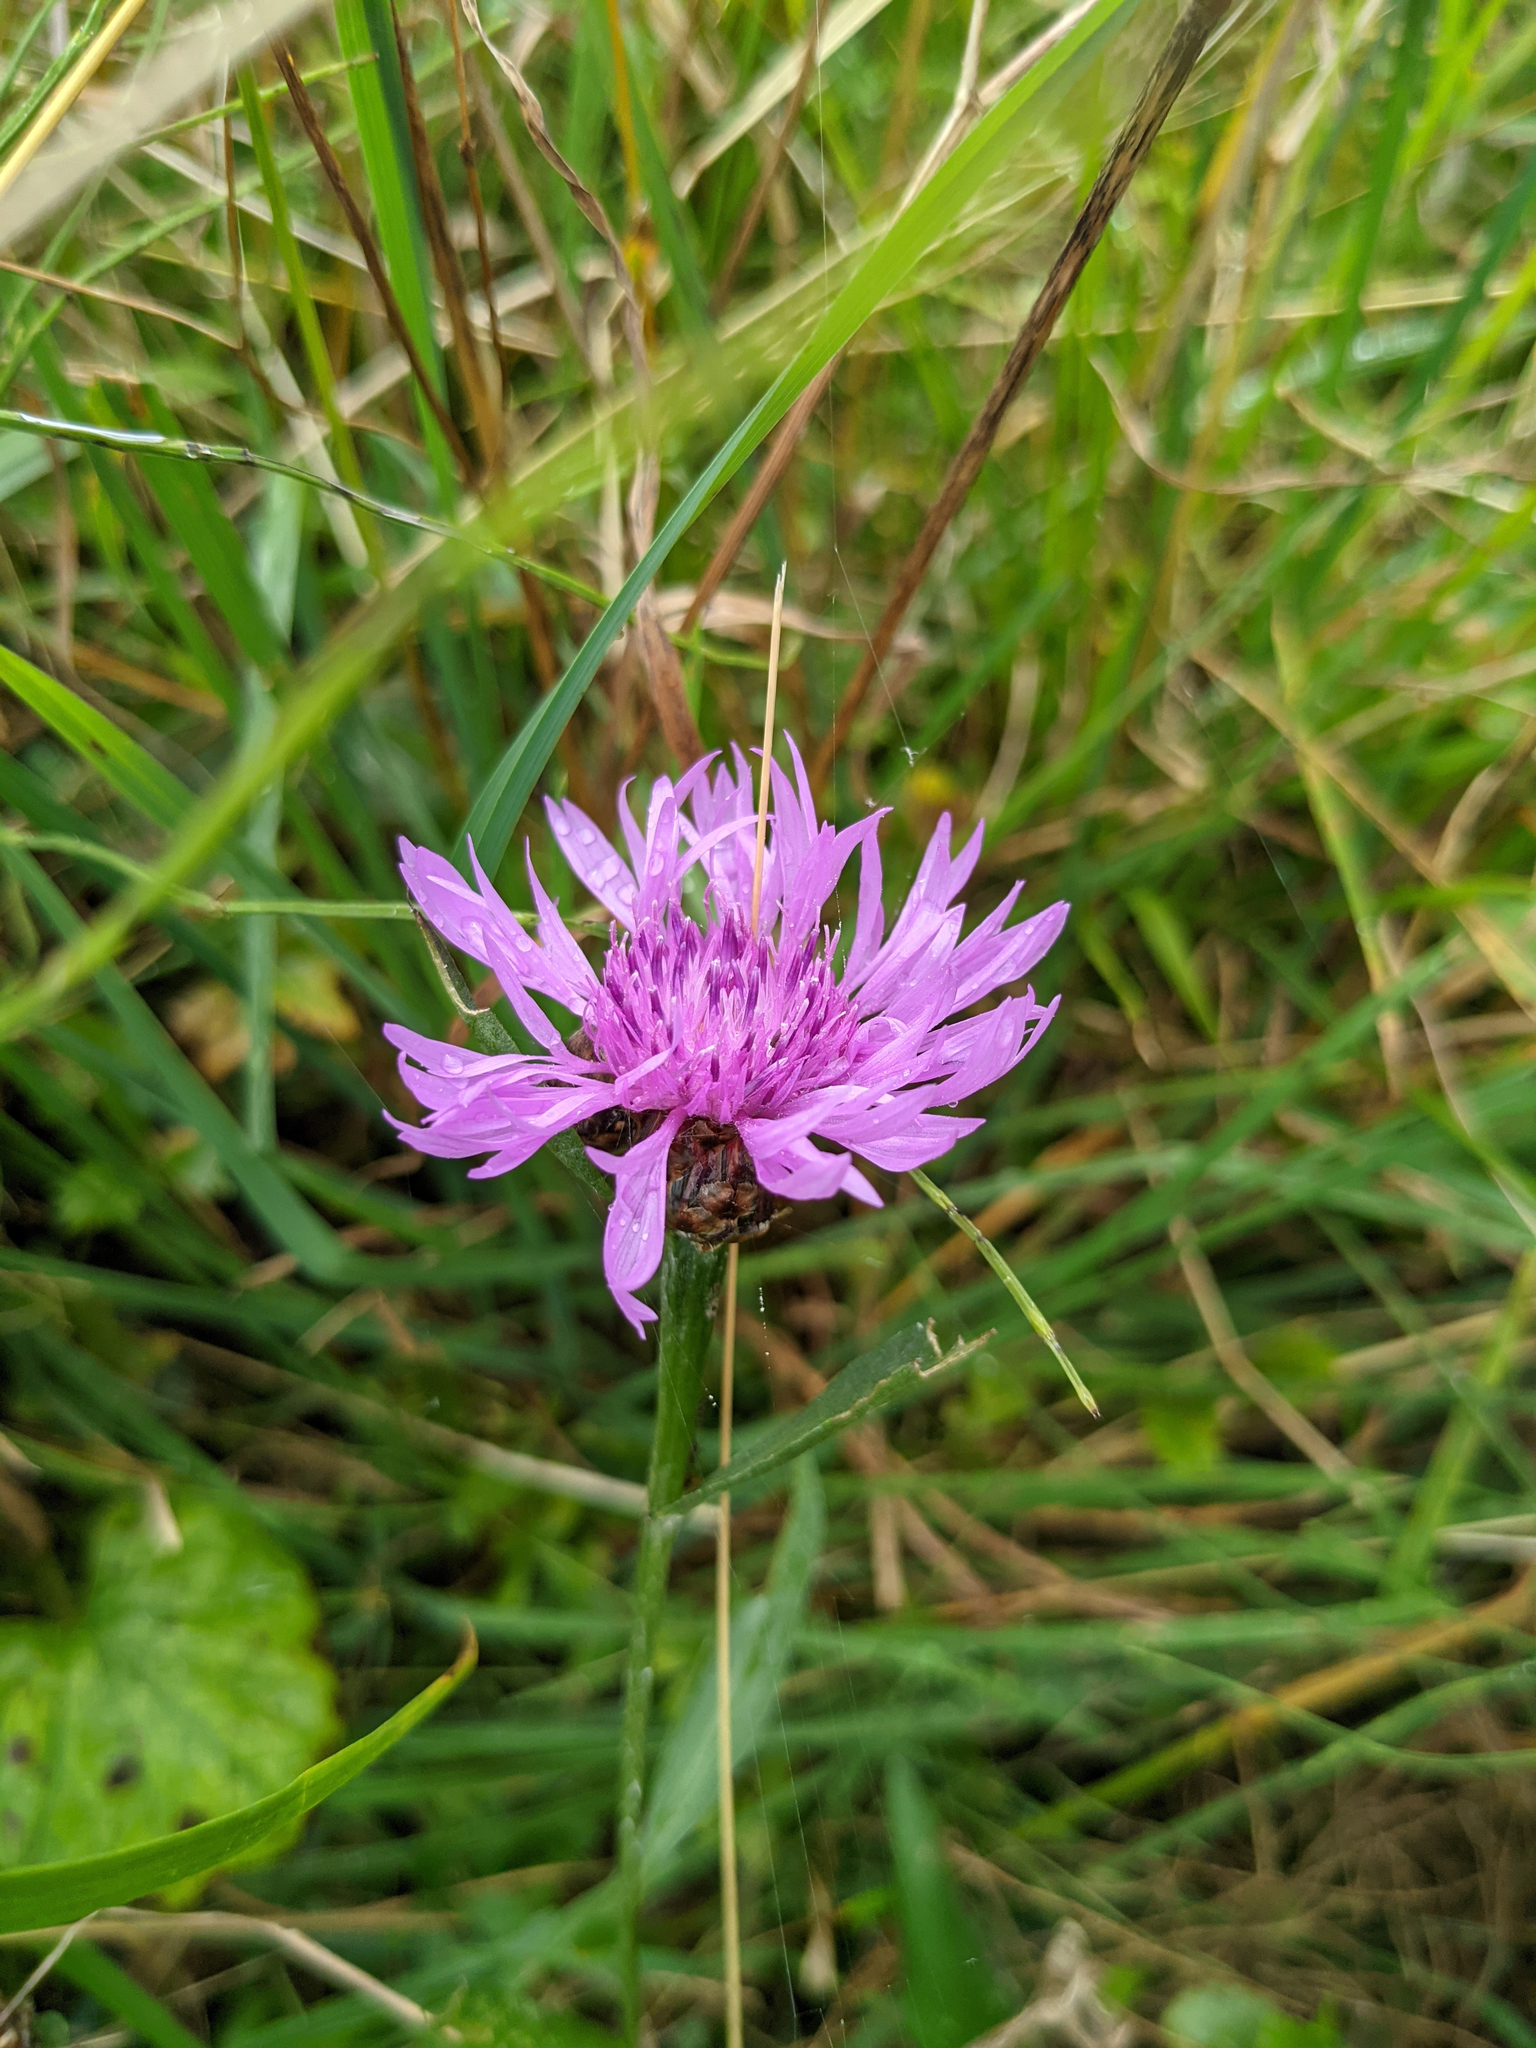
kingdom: Plantae
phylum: Tracheophyta
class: Magnoliopsida
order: Asterales
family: Asteraceae
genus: Centaurea
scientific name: Centaurea jacea
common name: Brown knapweed
